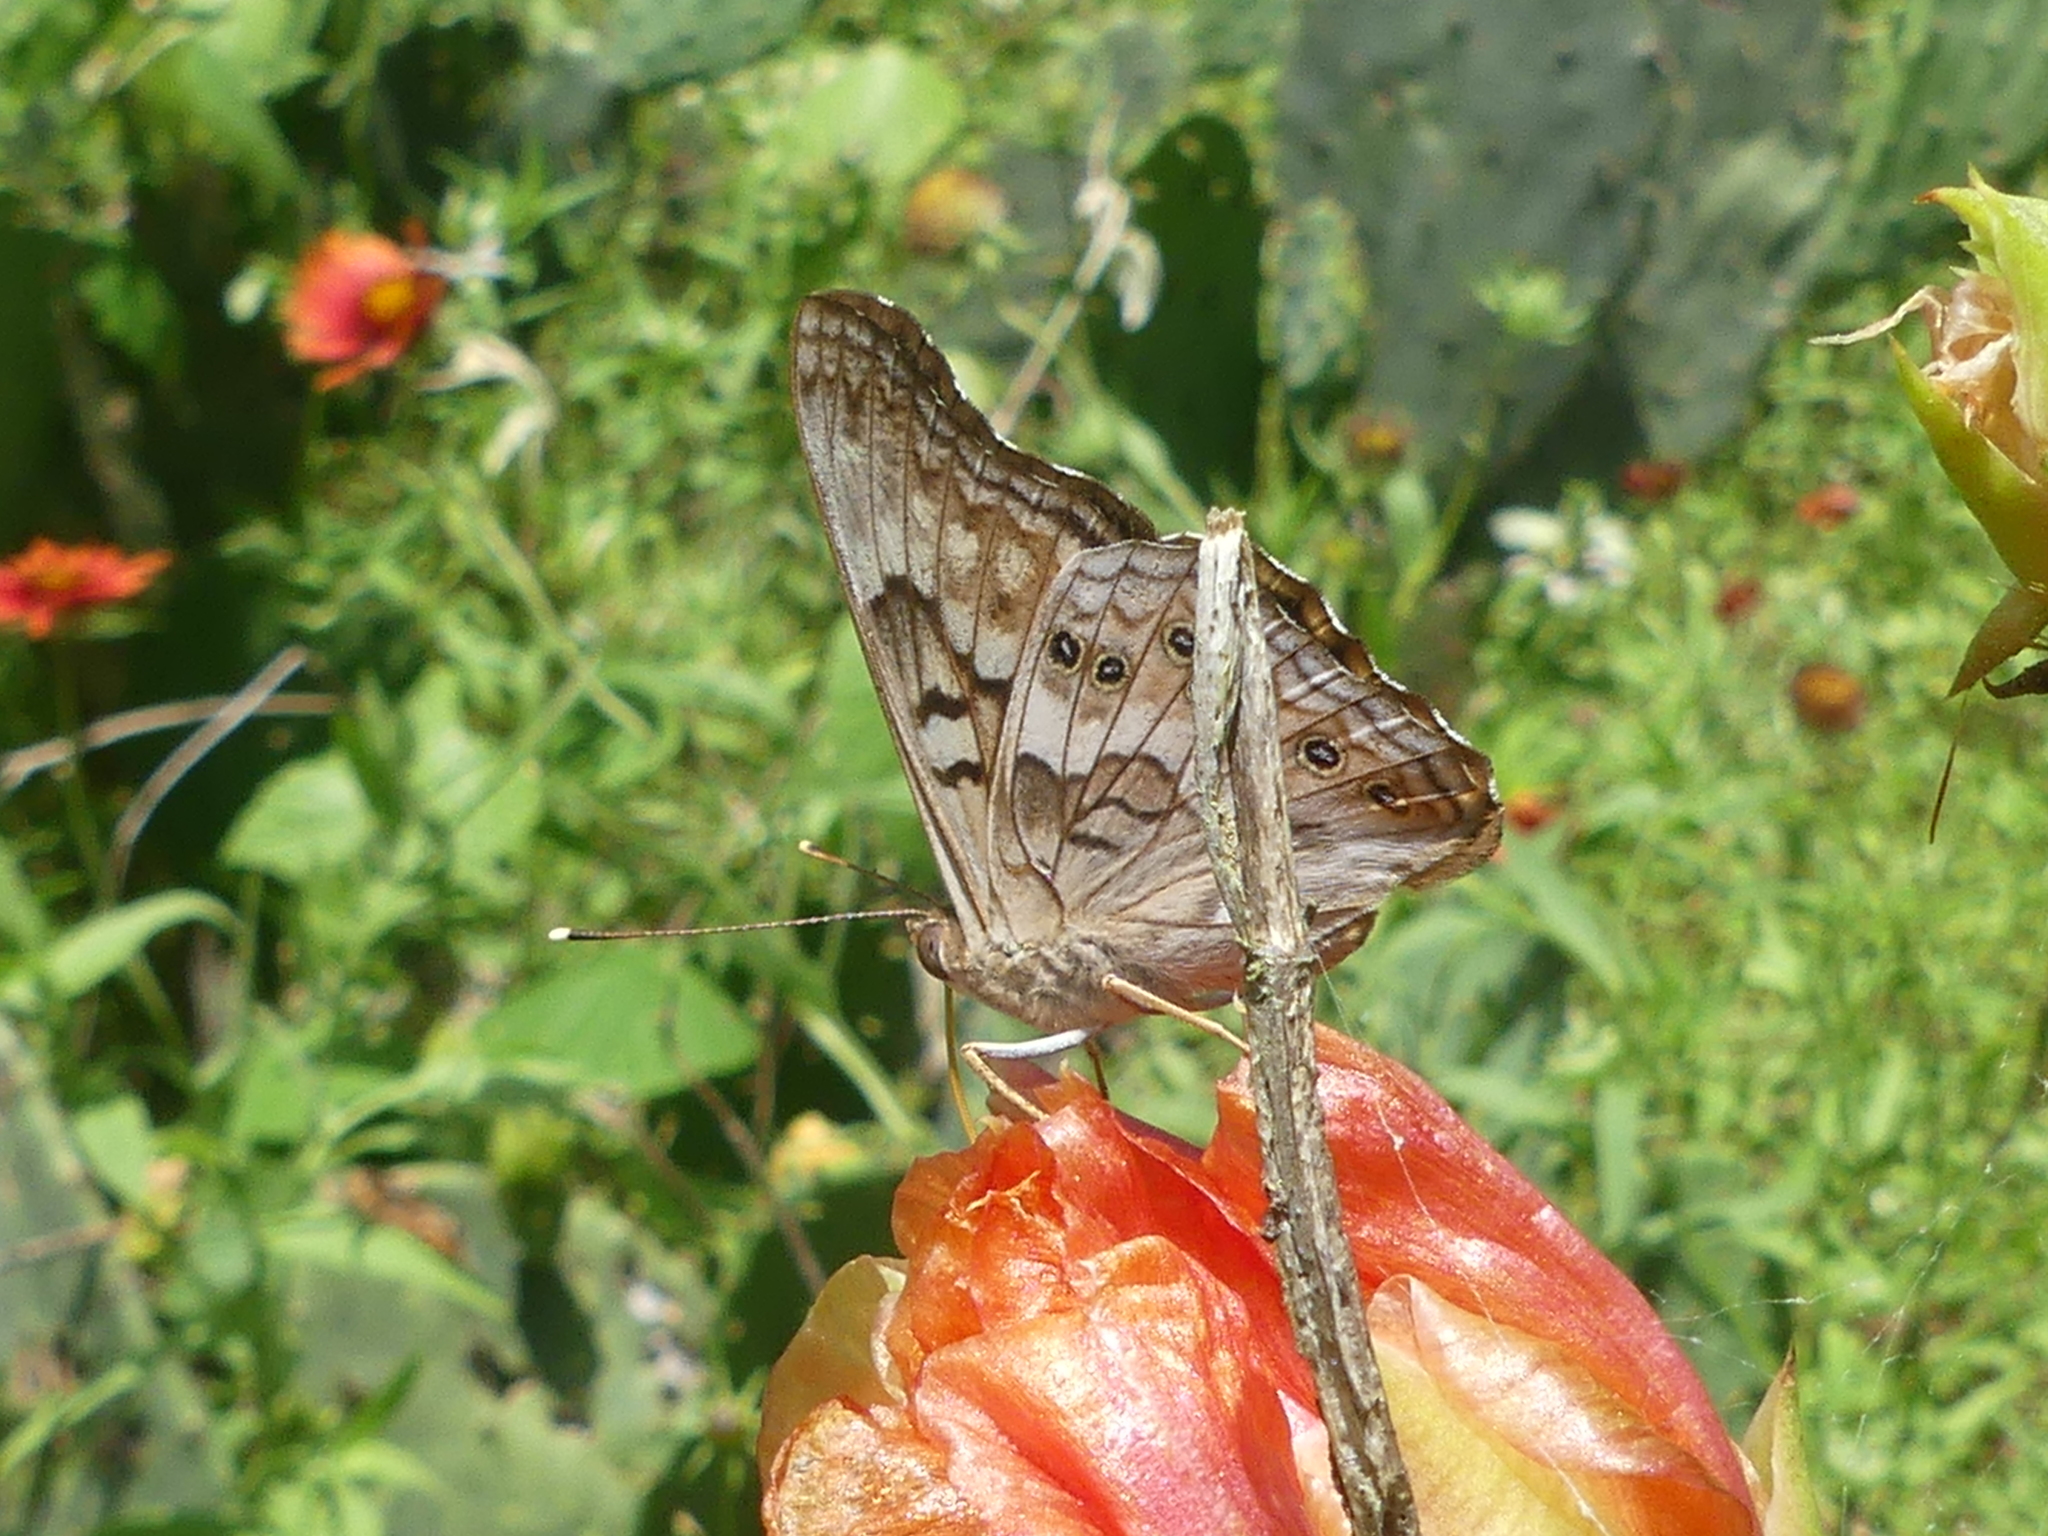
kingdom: Animalia
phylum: Arthropoda
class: Insecta
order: Lepidoptera
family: Nymphalidae
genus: Asterocampa
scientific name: Asterocampa clyton
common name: Tawny emperor
